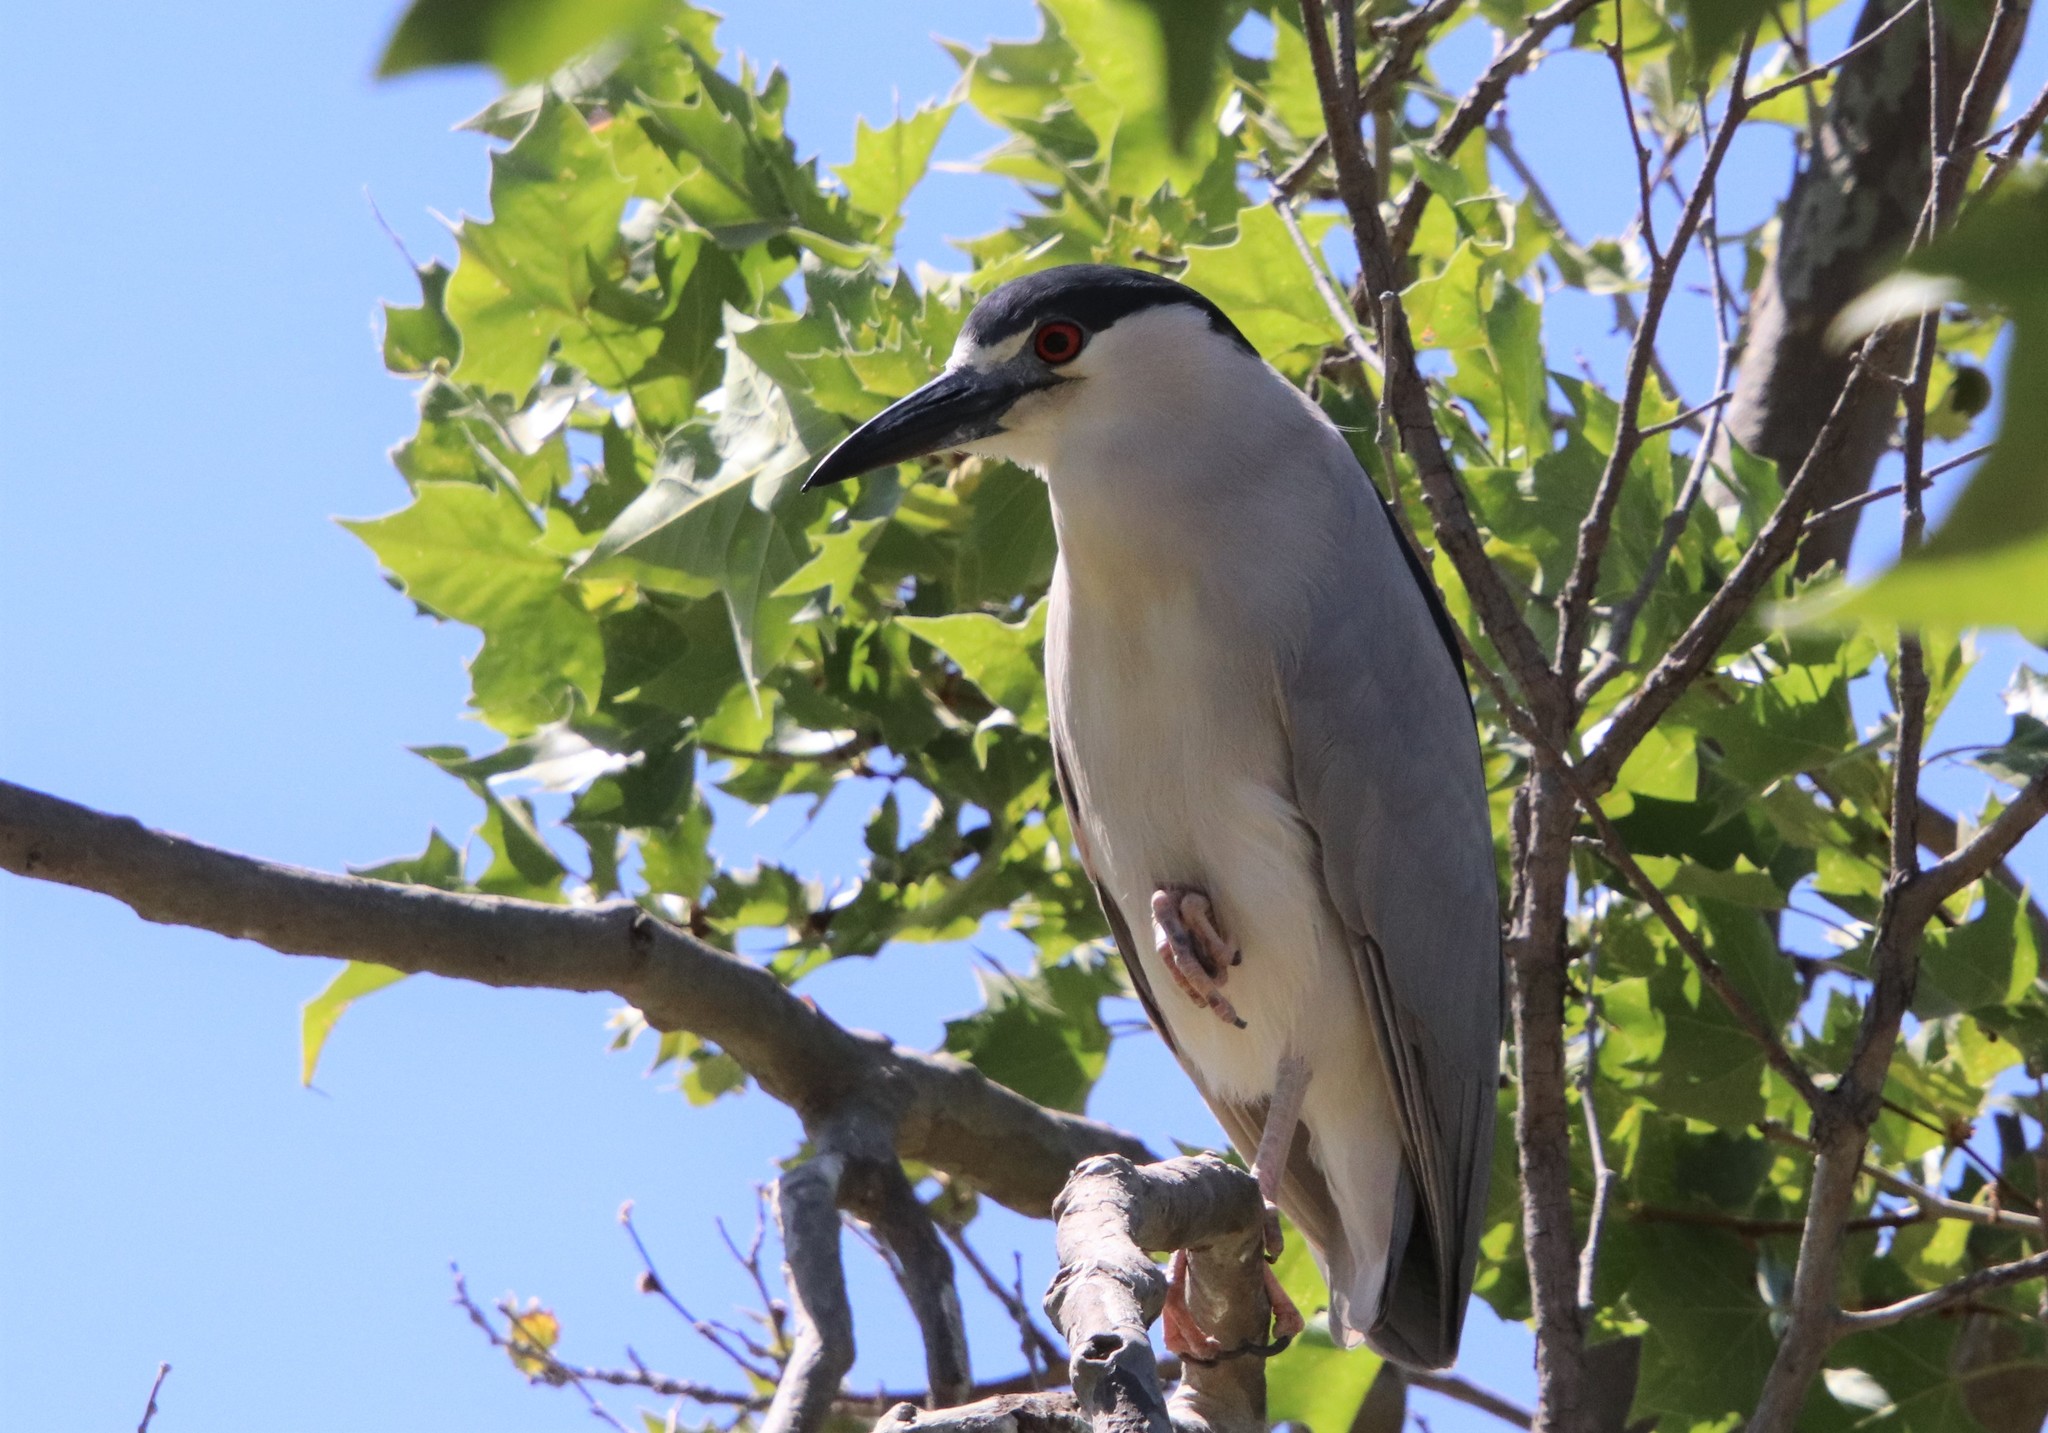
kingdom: Animalia
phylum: Chordata
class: Aves
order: Pelecaniformes
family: Ardeidae
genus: Nycticorax
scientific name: Nycticorax nycticorax
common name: Black-crowned night heron
